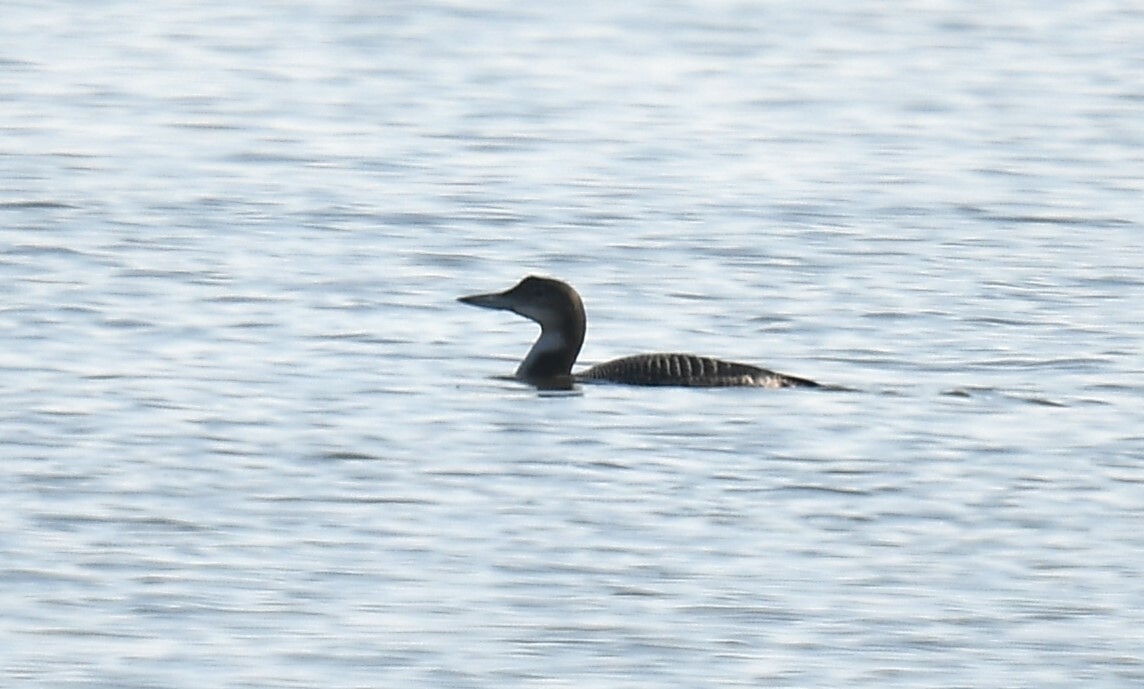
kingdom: Animalia
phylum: Chordata
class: Aves
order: Gaviiformes
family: Gaviidae
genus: Gavia
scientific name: Gavia immer
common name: Common loon
